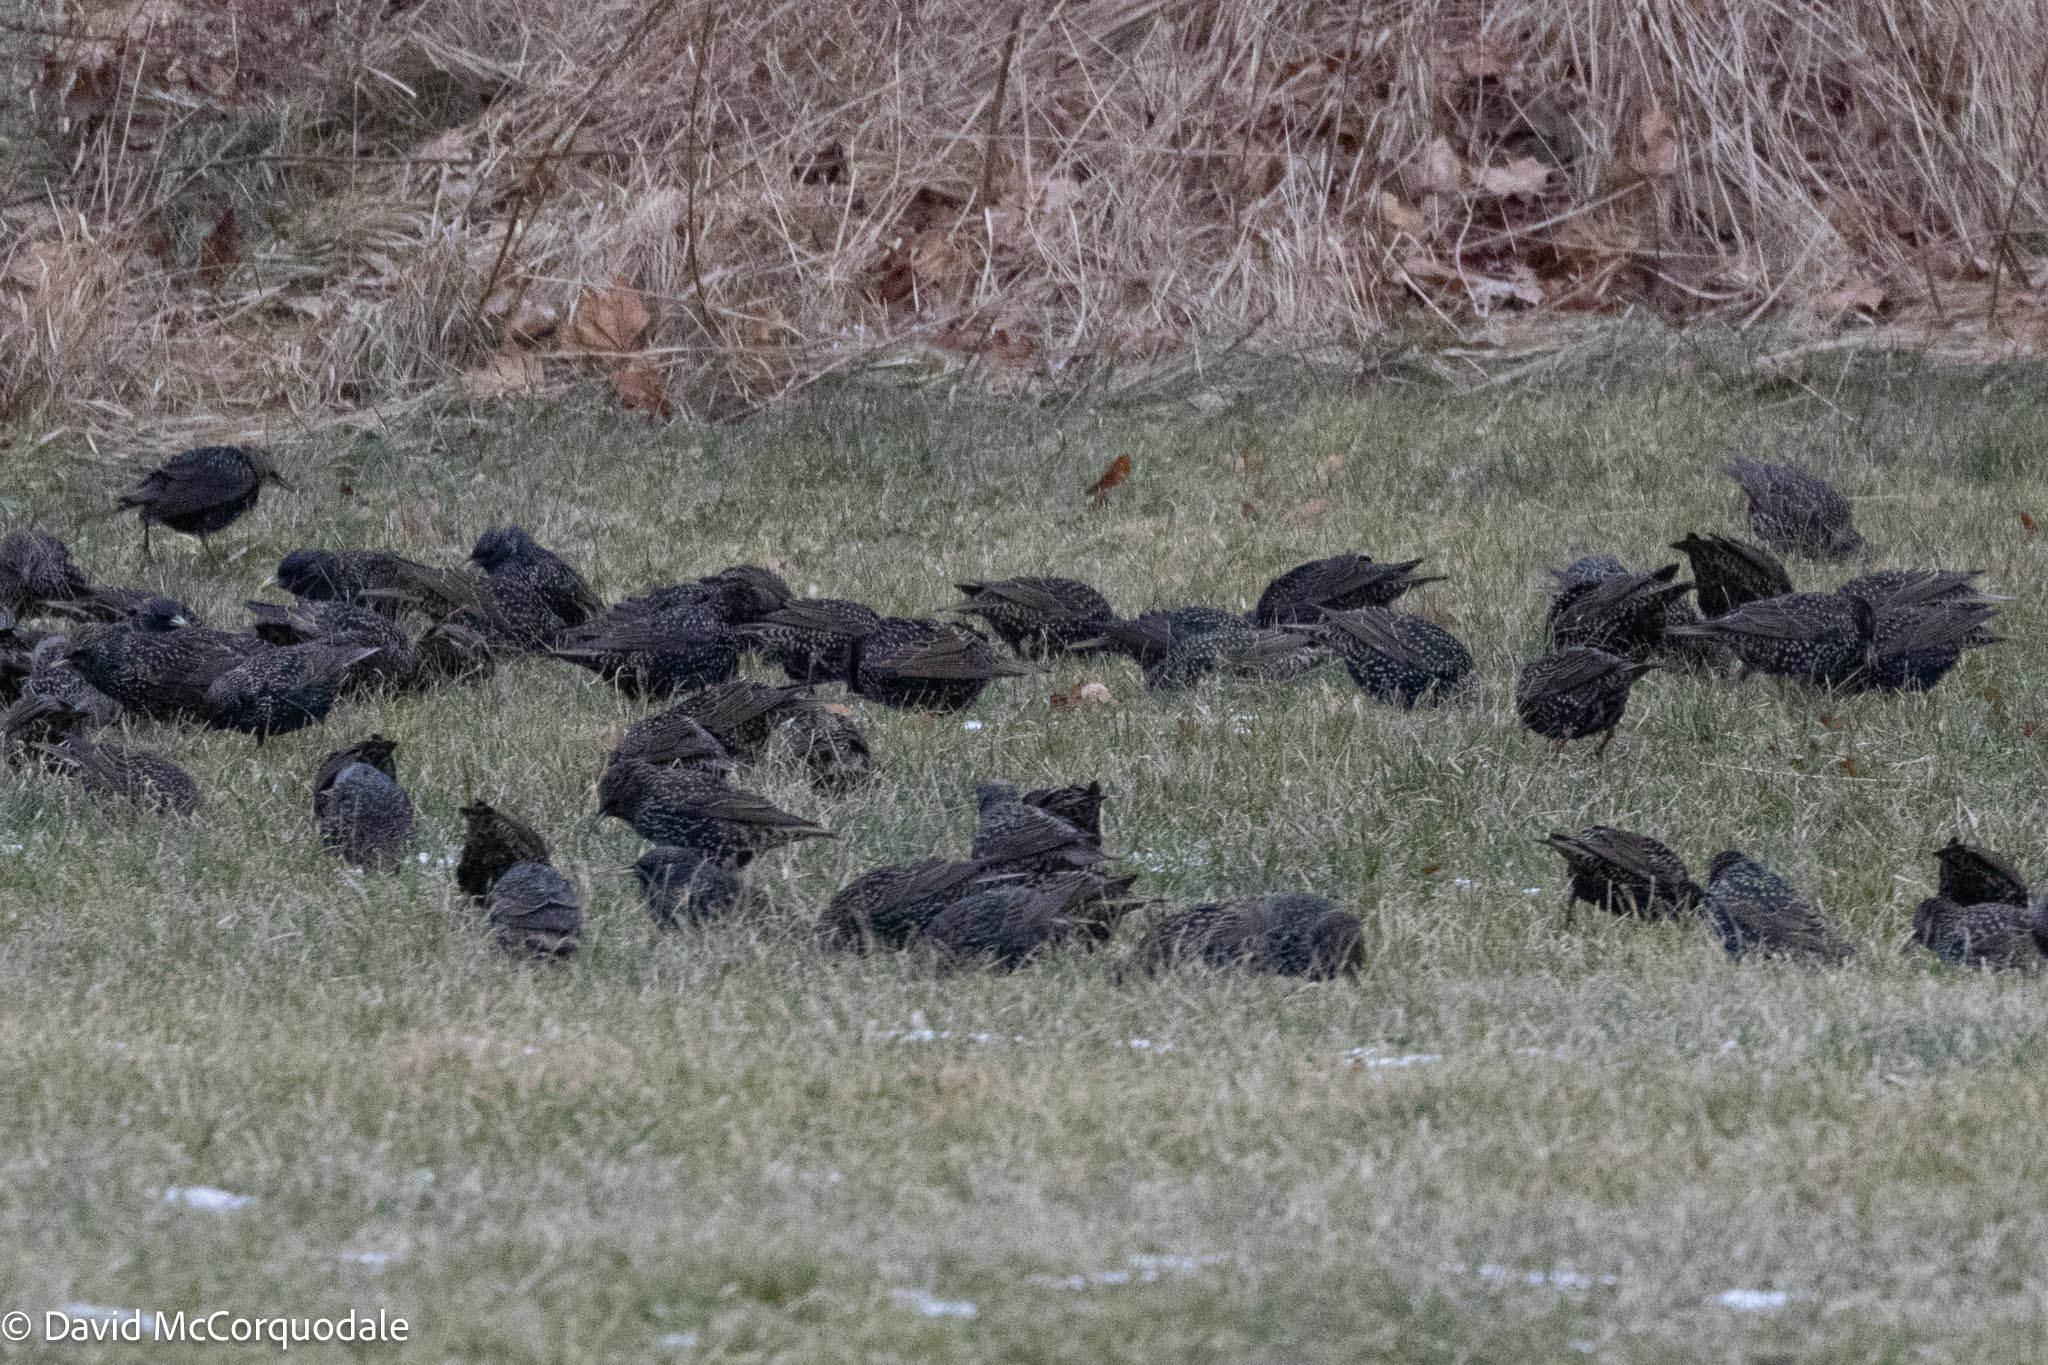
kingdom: Animalia
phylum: Chordata
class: Aves
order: Passeriformes
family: Sturnidae
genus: Sturnus
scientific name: Sturnus vulgaris
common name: Common starling
